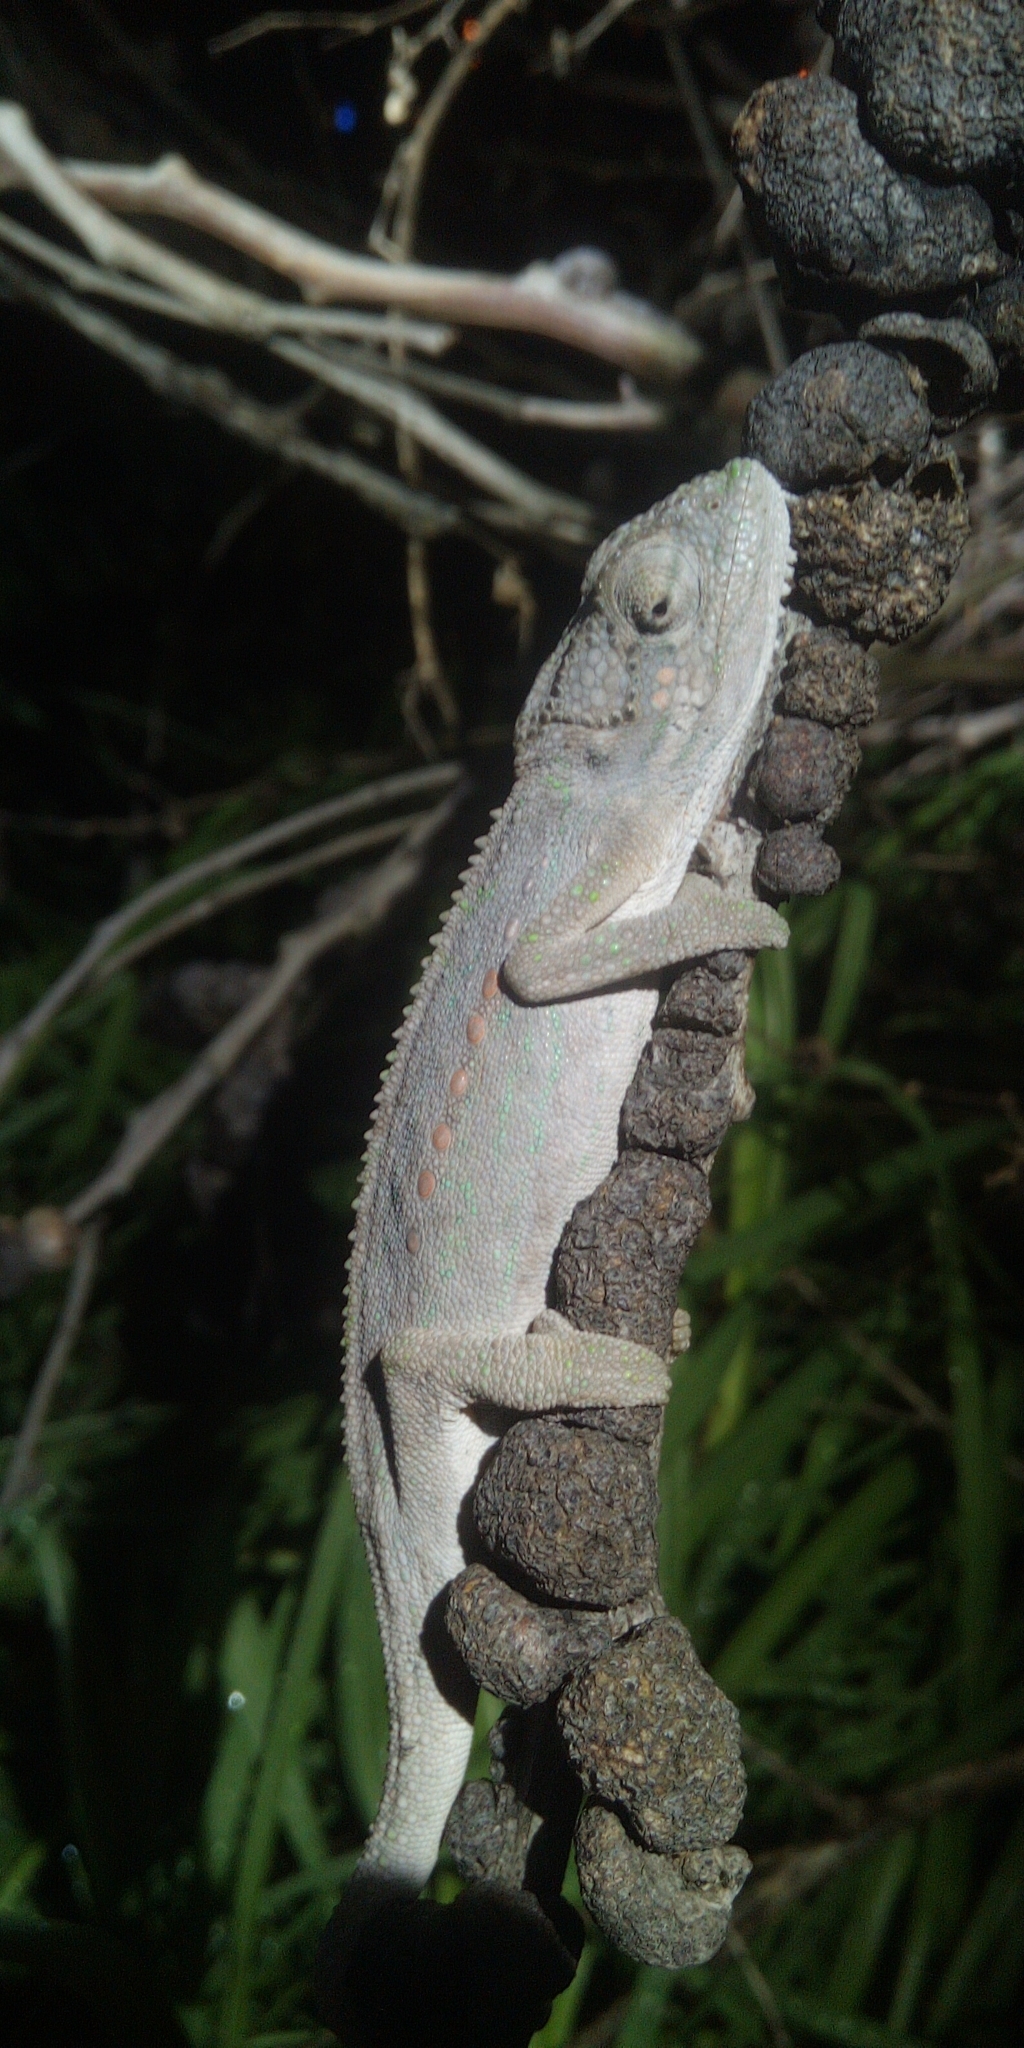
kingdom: Animalia
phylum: Chordata
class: Squamata
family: Chamaeleonidae
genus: Bradypodion
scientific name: Bradypodion pumilum
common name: Cape dwarf chameleon
